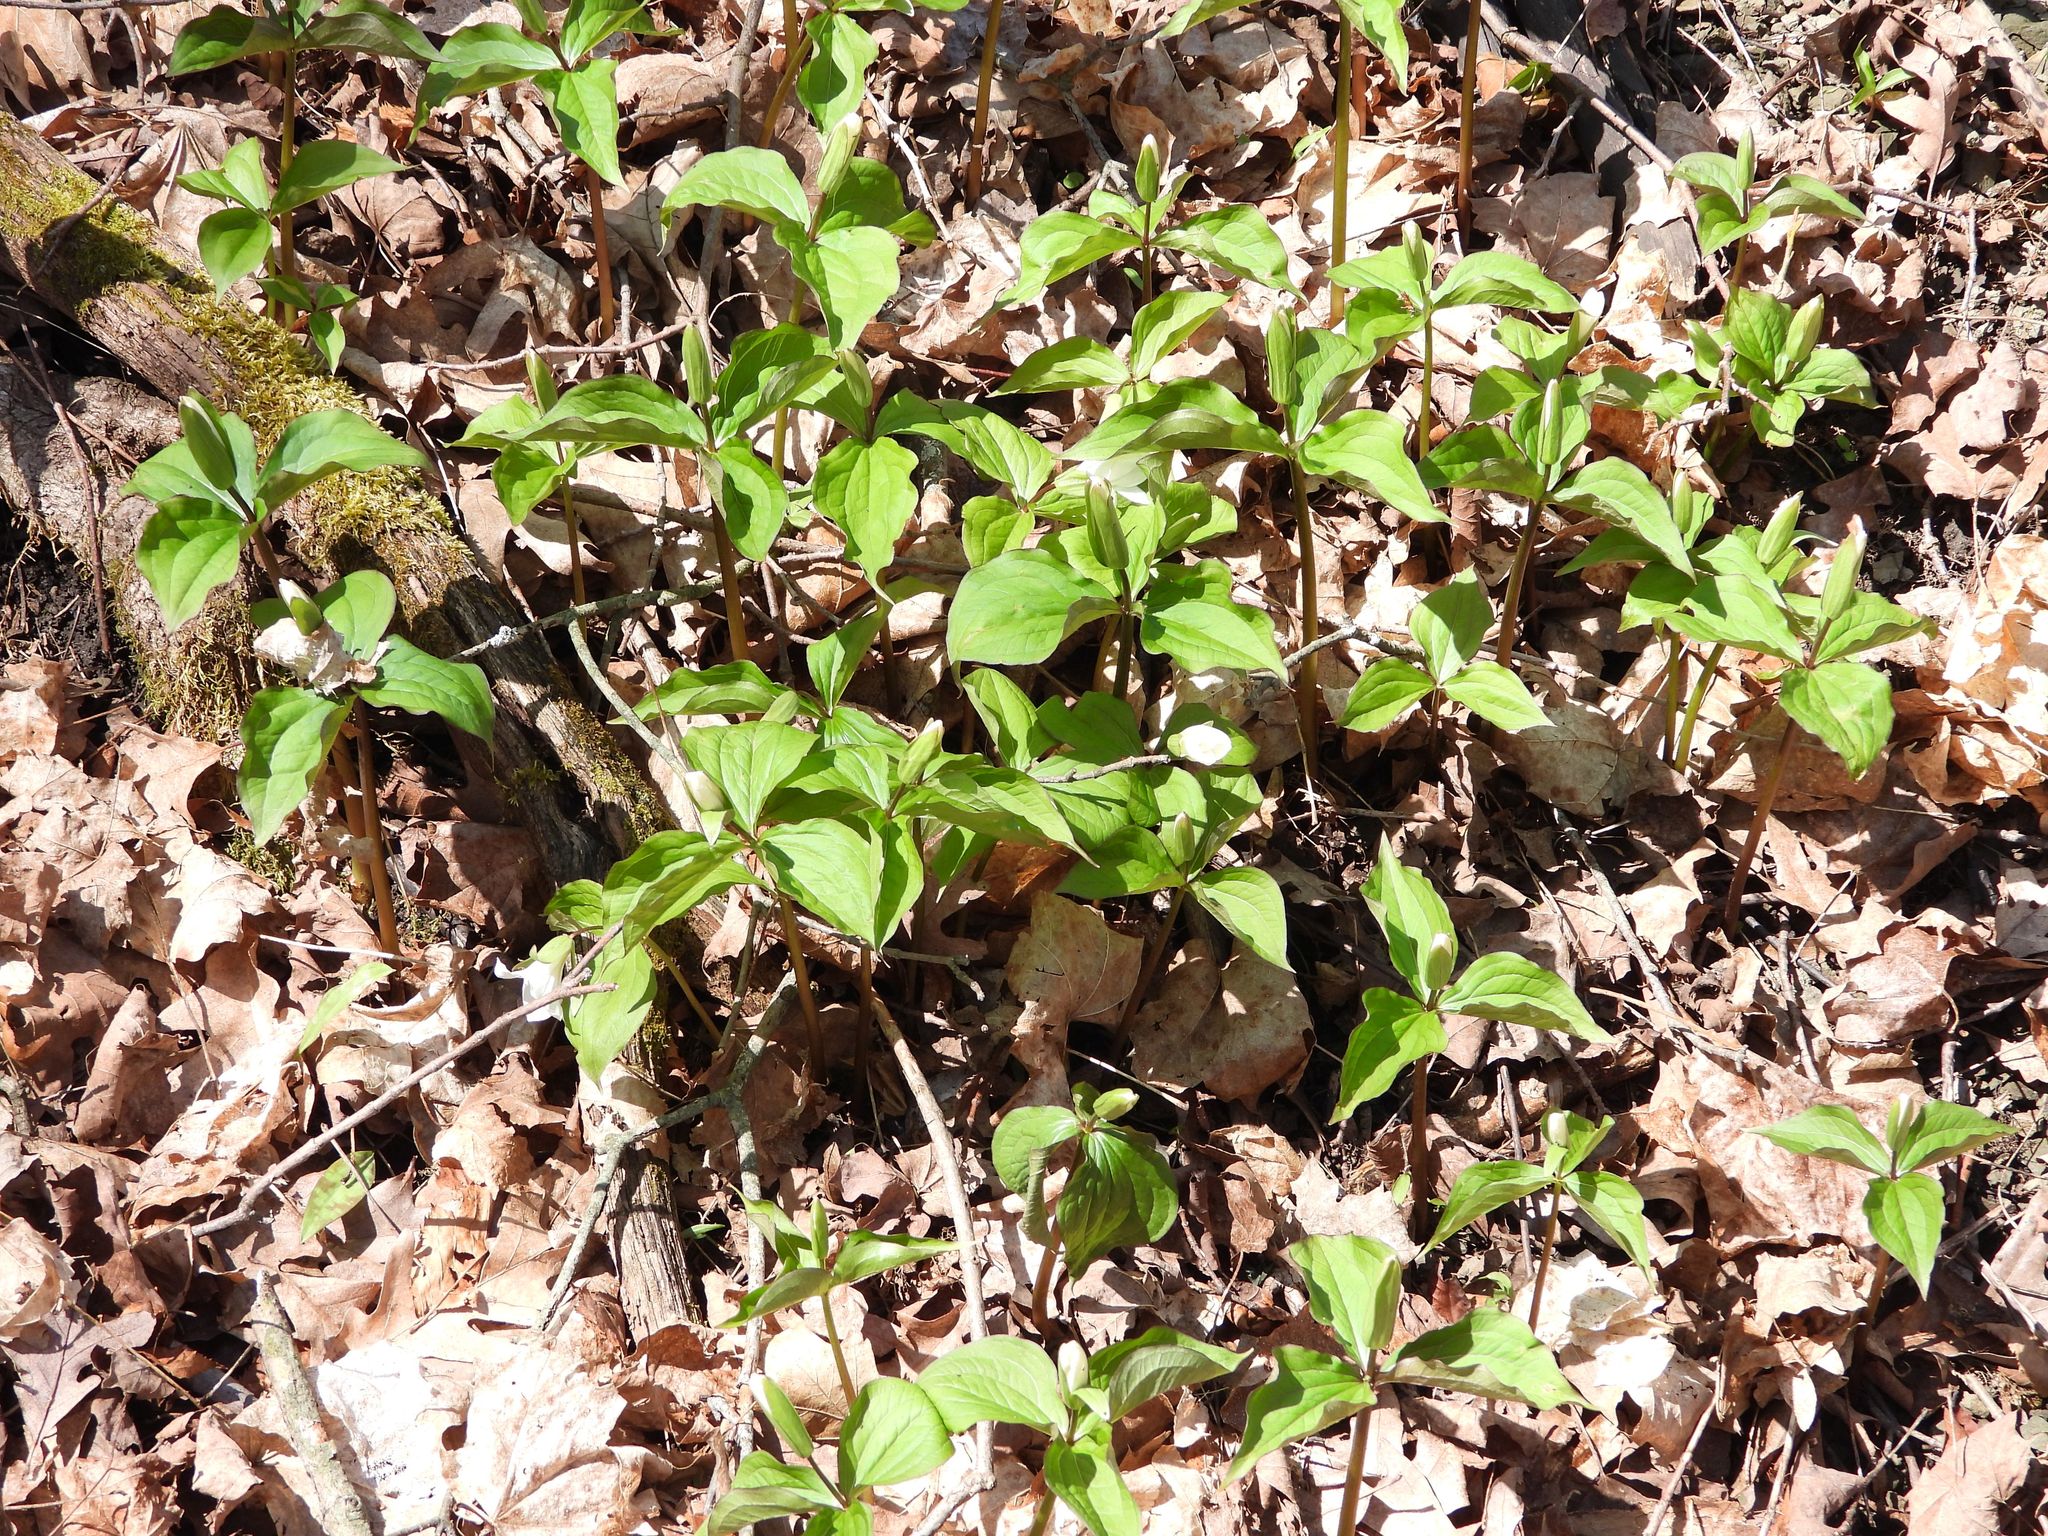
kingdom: Plantae
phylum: Tracheophyta
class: Liliopsida
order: Liliales
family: Melanthiaceae
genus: Trillium
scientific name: Trillium grandiflorum
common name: Great white trillium
